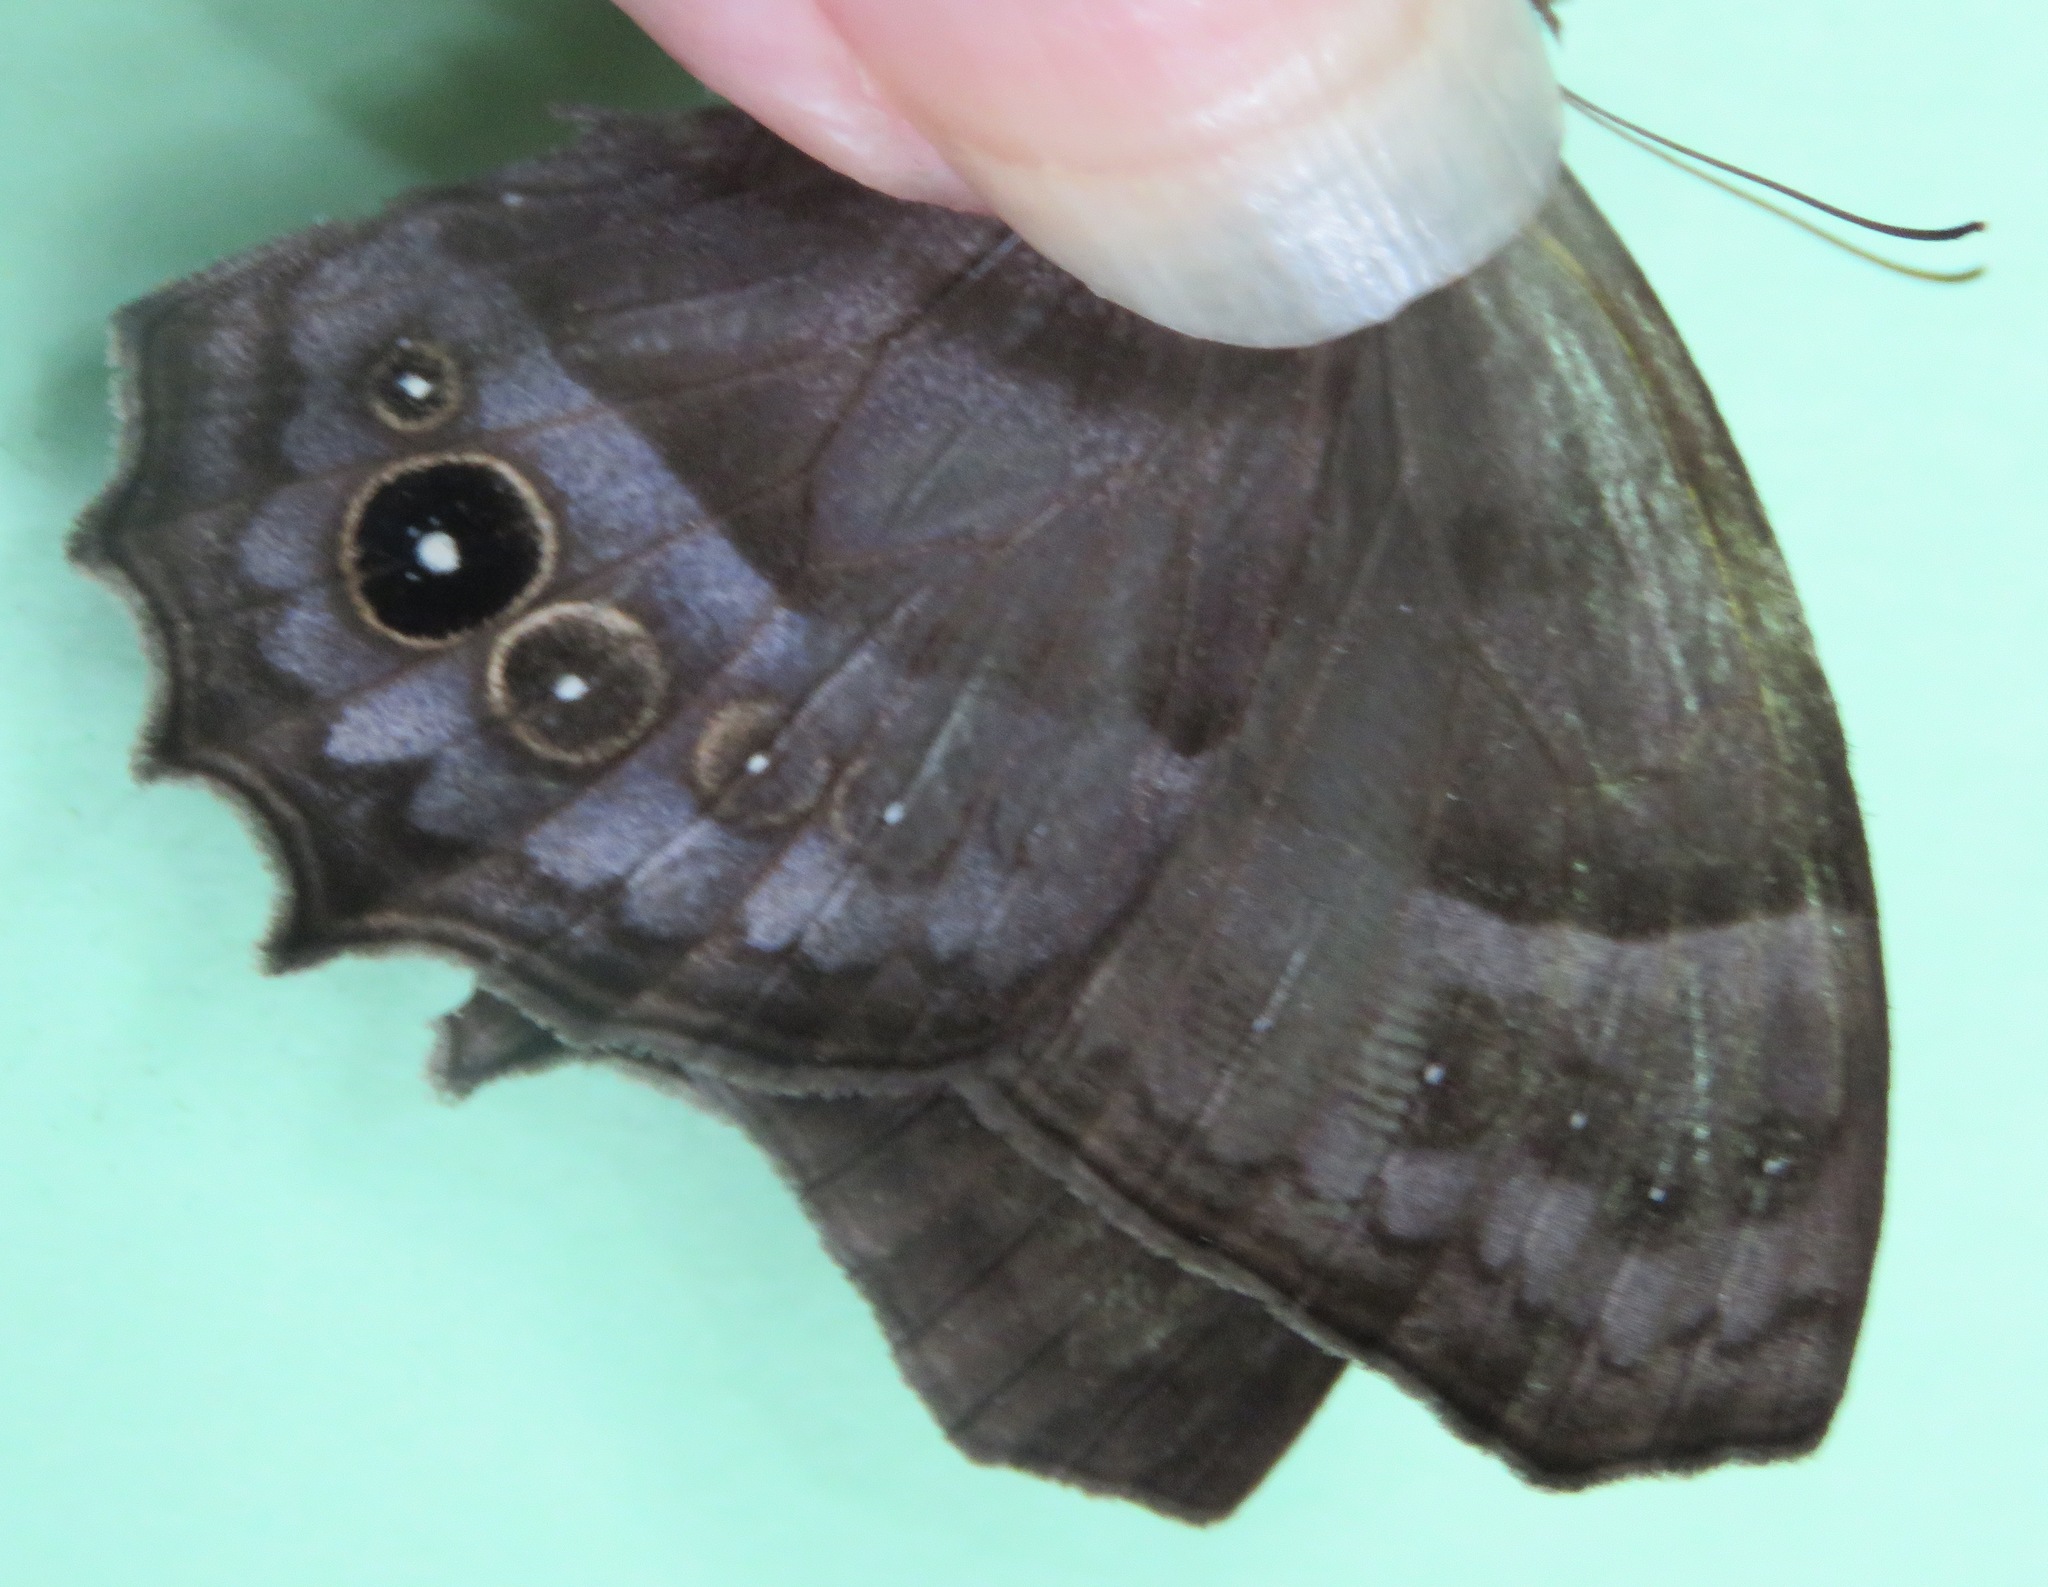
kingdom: Animalia
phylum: Arthropoda
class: Insecta
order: Lepidoptera
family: Nymphalidae
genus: Taygetis
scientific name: Taygetis inconspicua
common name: Inconspicuous satyr
